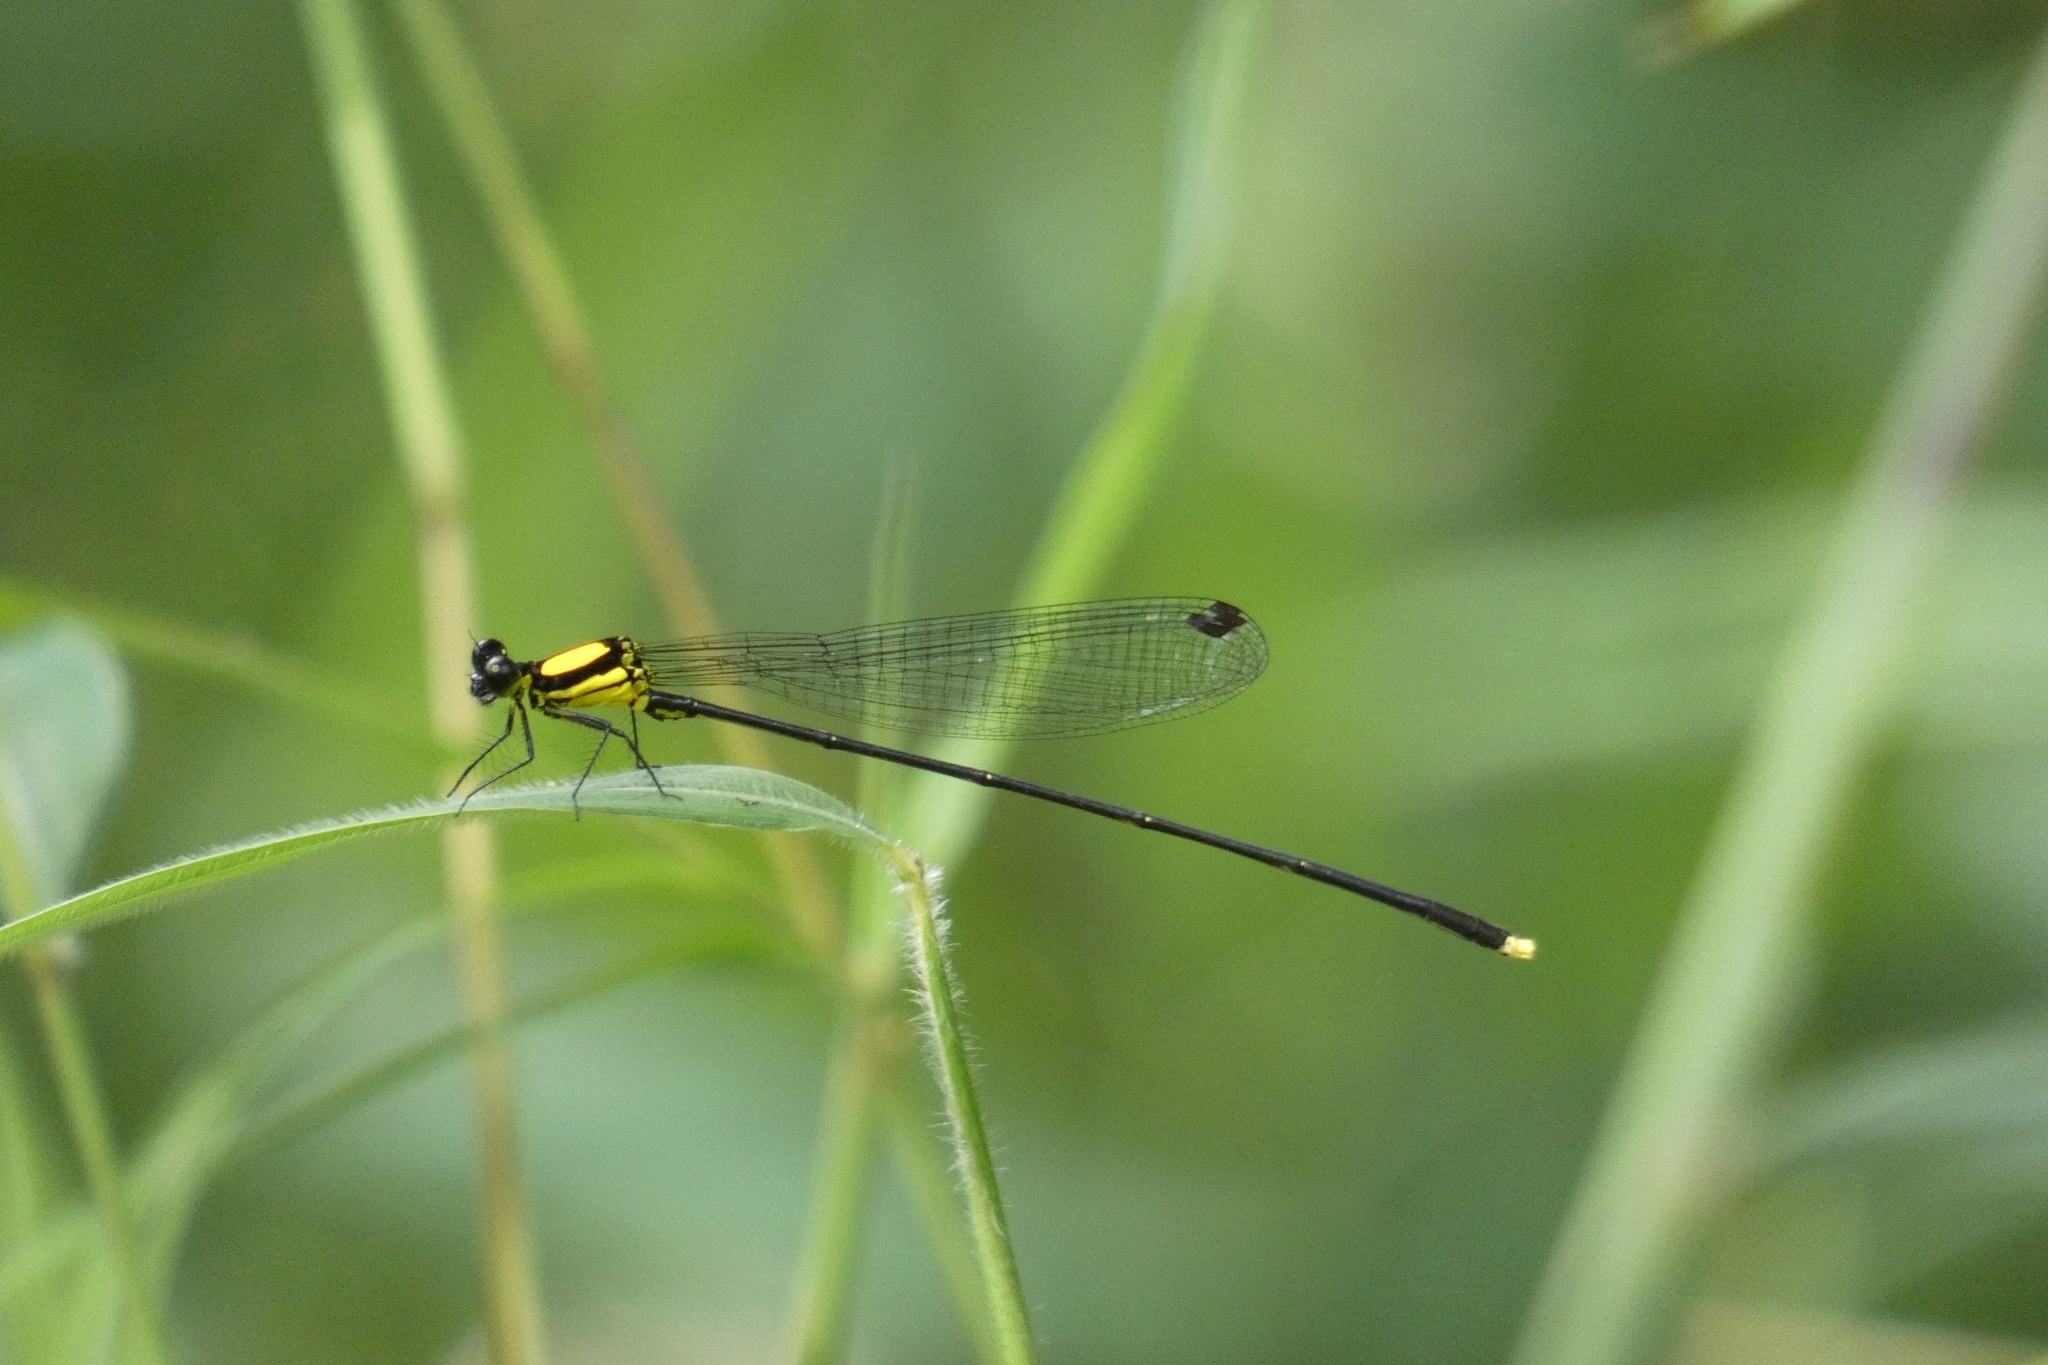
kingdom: Animalia
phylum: Arthropoda
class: Insecta
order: Odonata
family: Platycnemididae
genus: Coeliccia
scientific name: Coeliccia chromothorax
